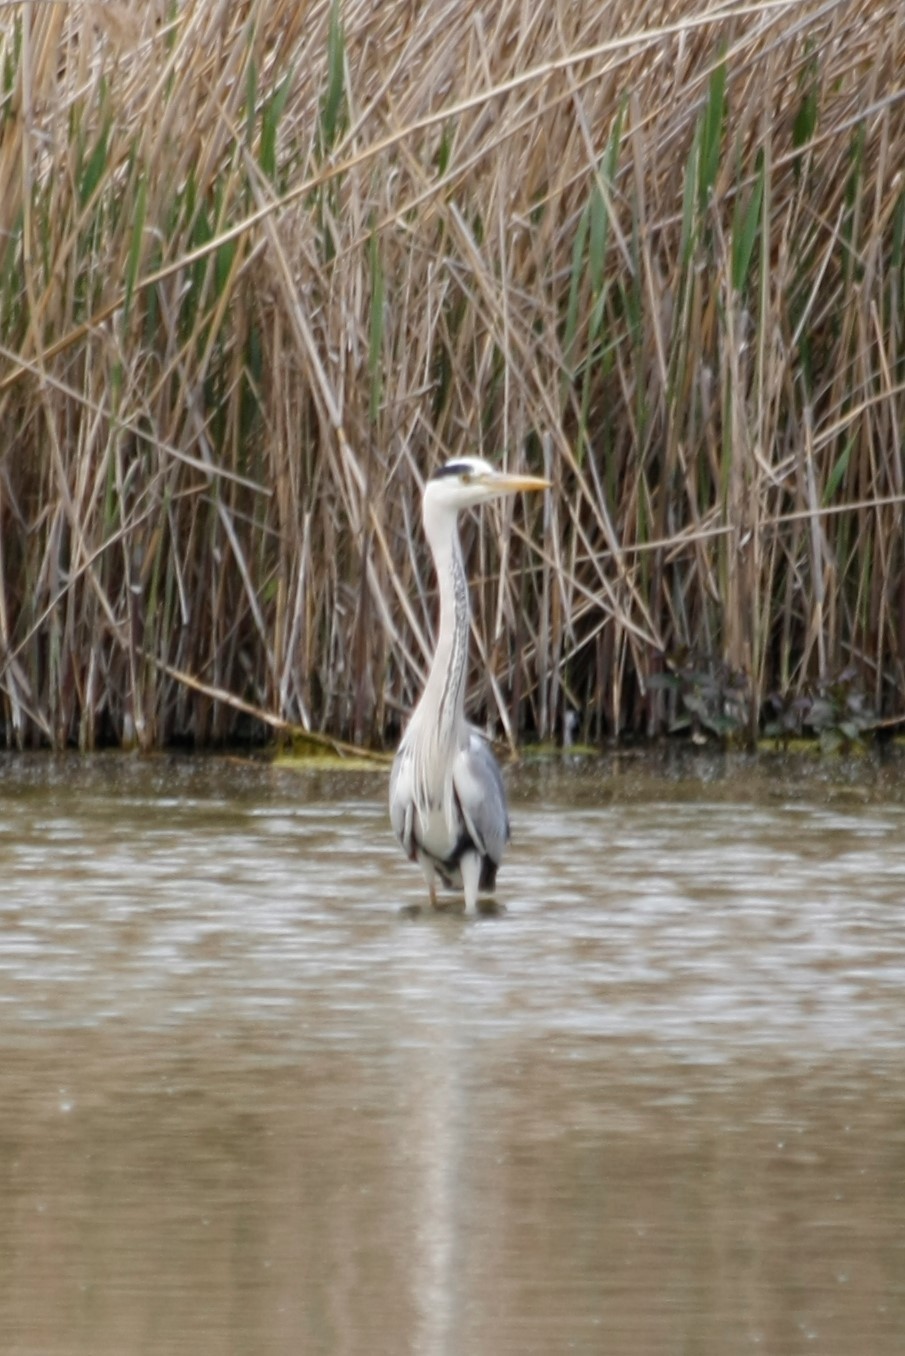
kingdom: Animalia
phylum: Chordata
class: Aves
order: Pelecaniformes
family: Ardeidae
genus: Ardea
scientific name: Ardea cinerea
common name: Grey heron
